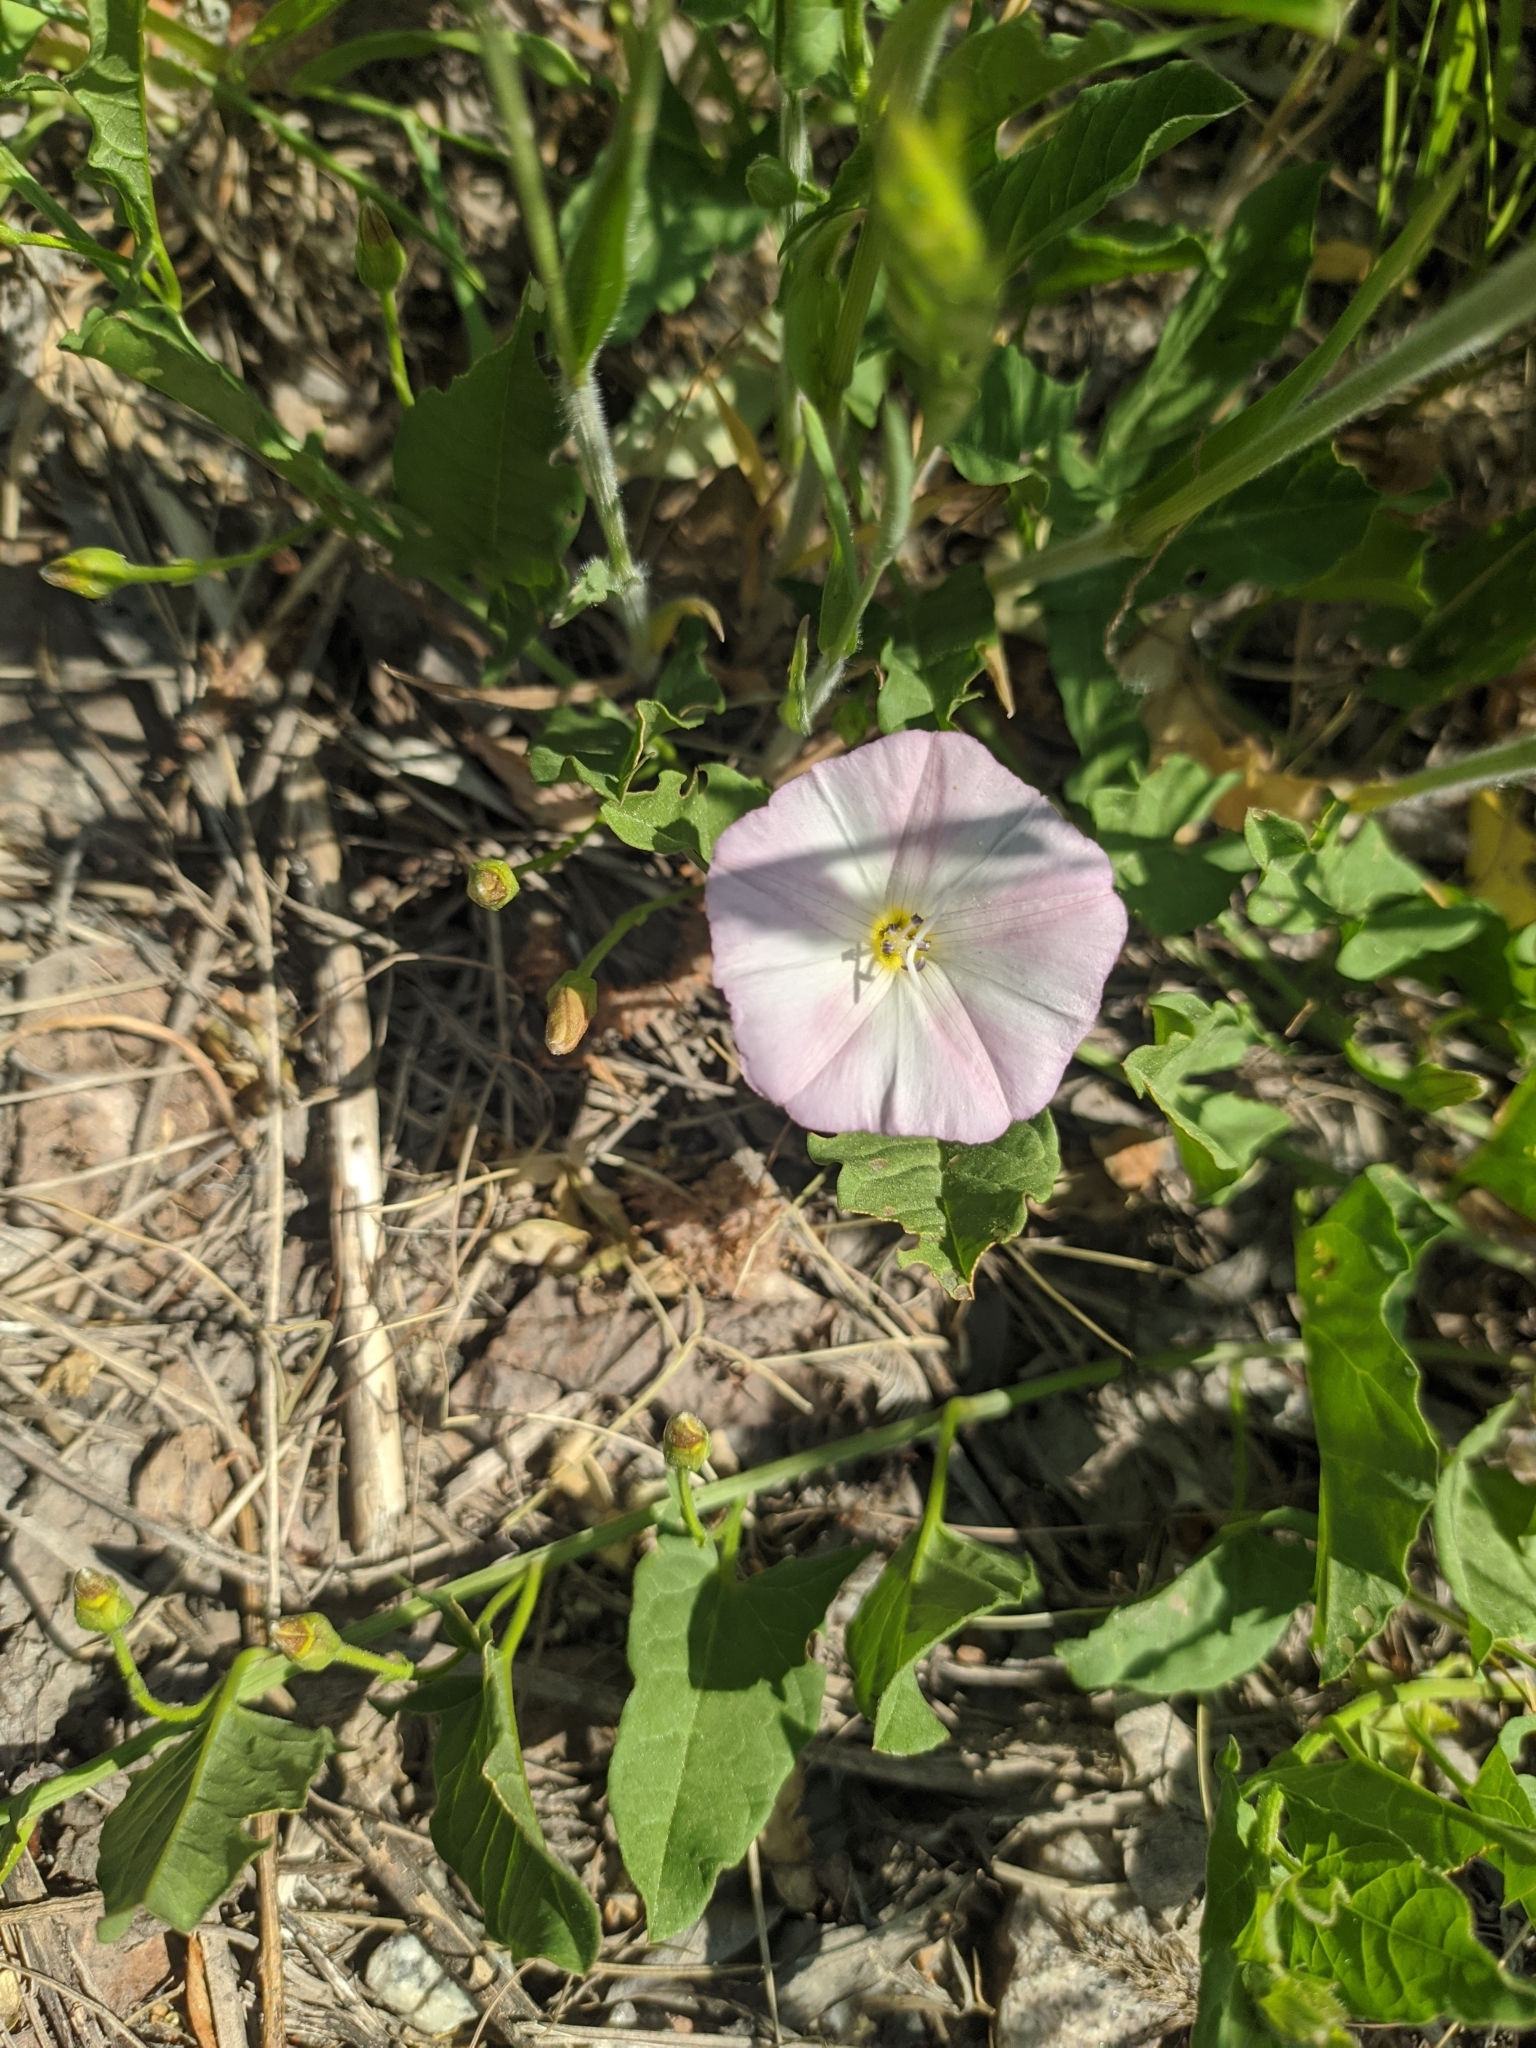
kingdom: Plantae
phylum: Tracheophyta
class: Magnoliopsida
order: Solanales
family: Convolvulaceae
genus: Convolvulus
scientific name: Convolvulus arvensis
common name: Field bindweed
